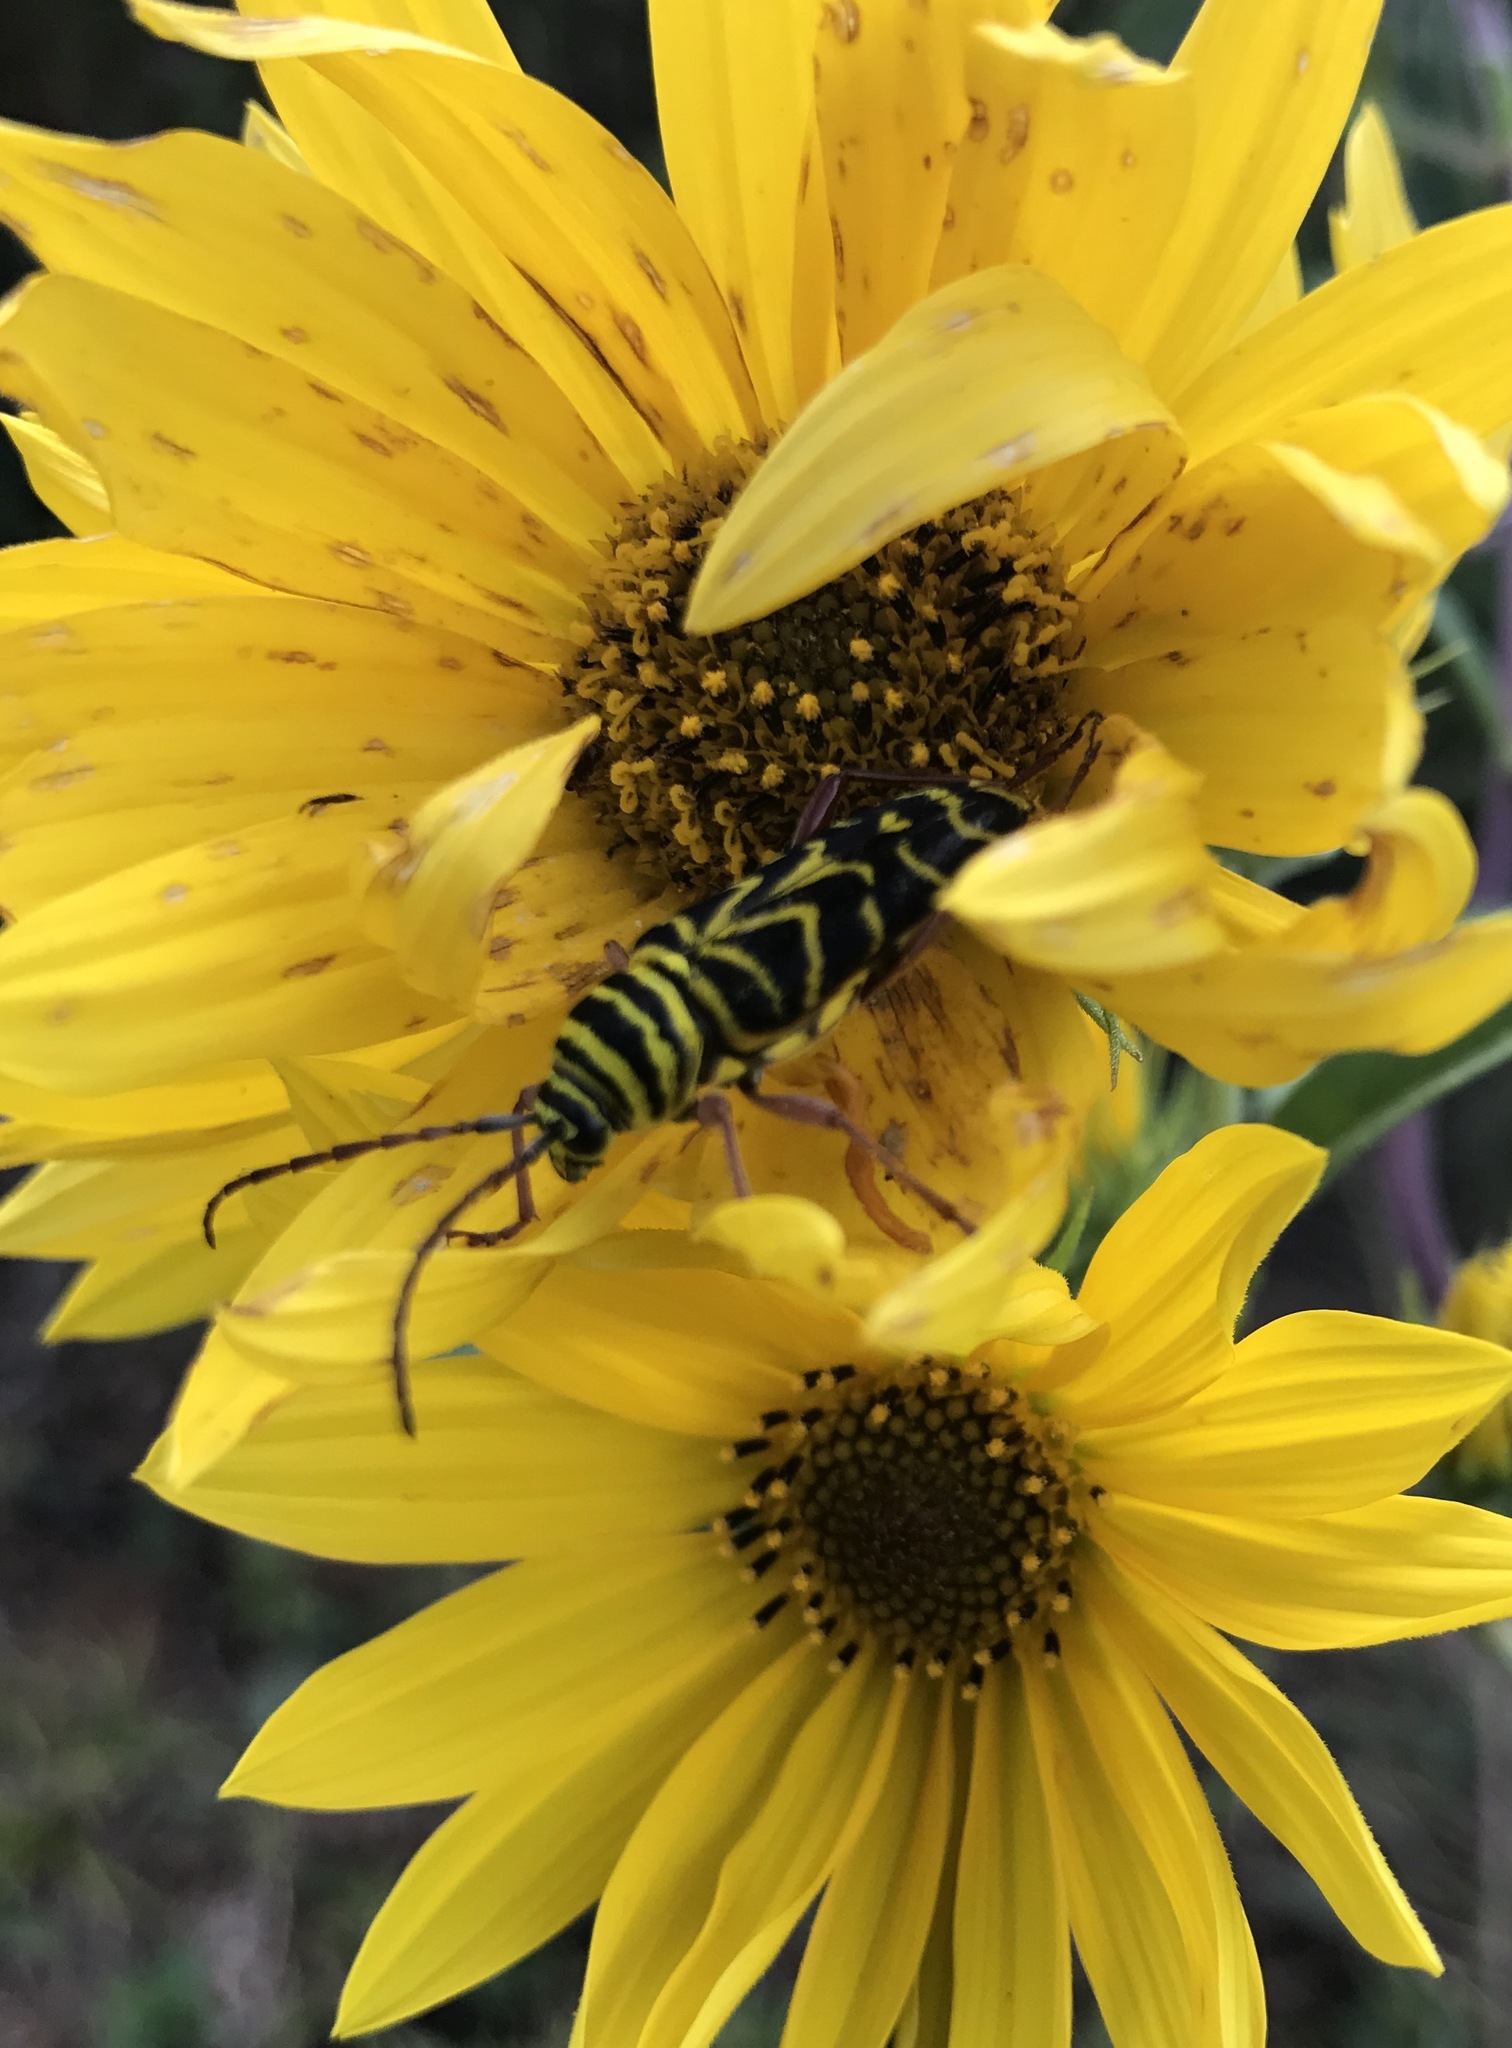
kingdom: Animalia
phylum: Arthropoda
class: Insecta
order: Coleoptera
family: Cerambycidae
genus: Megacyllene
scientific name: Megacyllene robiniae
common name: Locust borer
